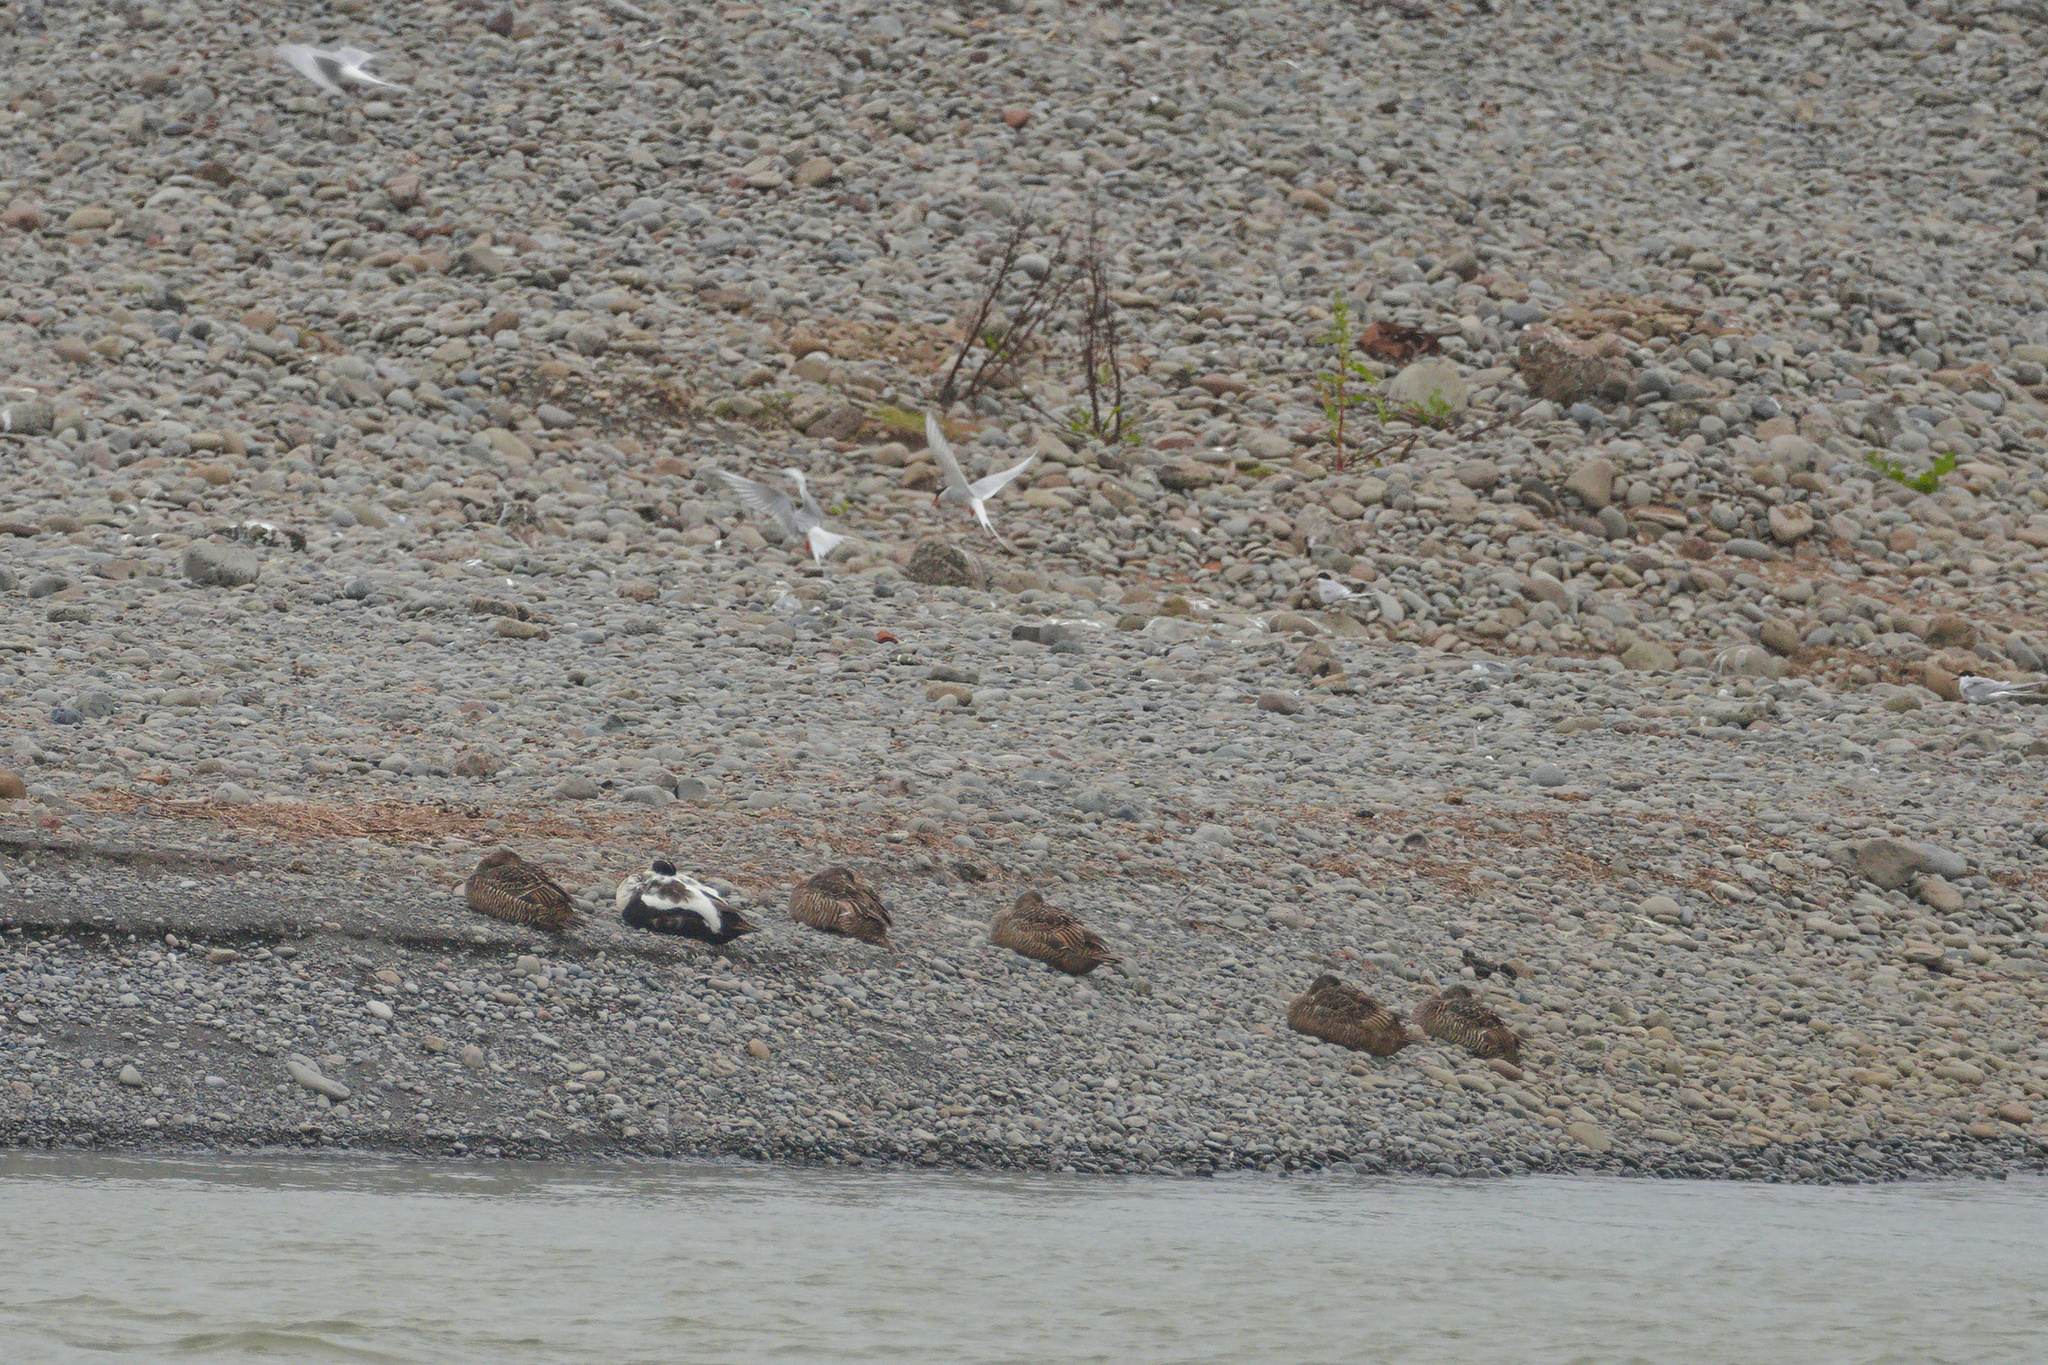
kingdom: Animalia
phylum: Chordata
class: Aves
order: Anseriformes
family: Anatidae
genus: Somateria
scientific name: Somateria mollissima
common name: Common eider
